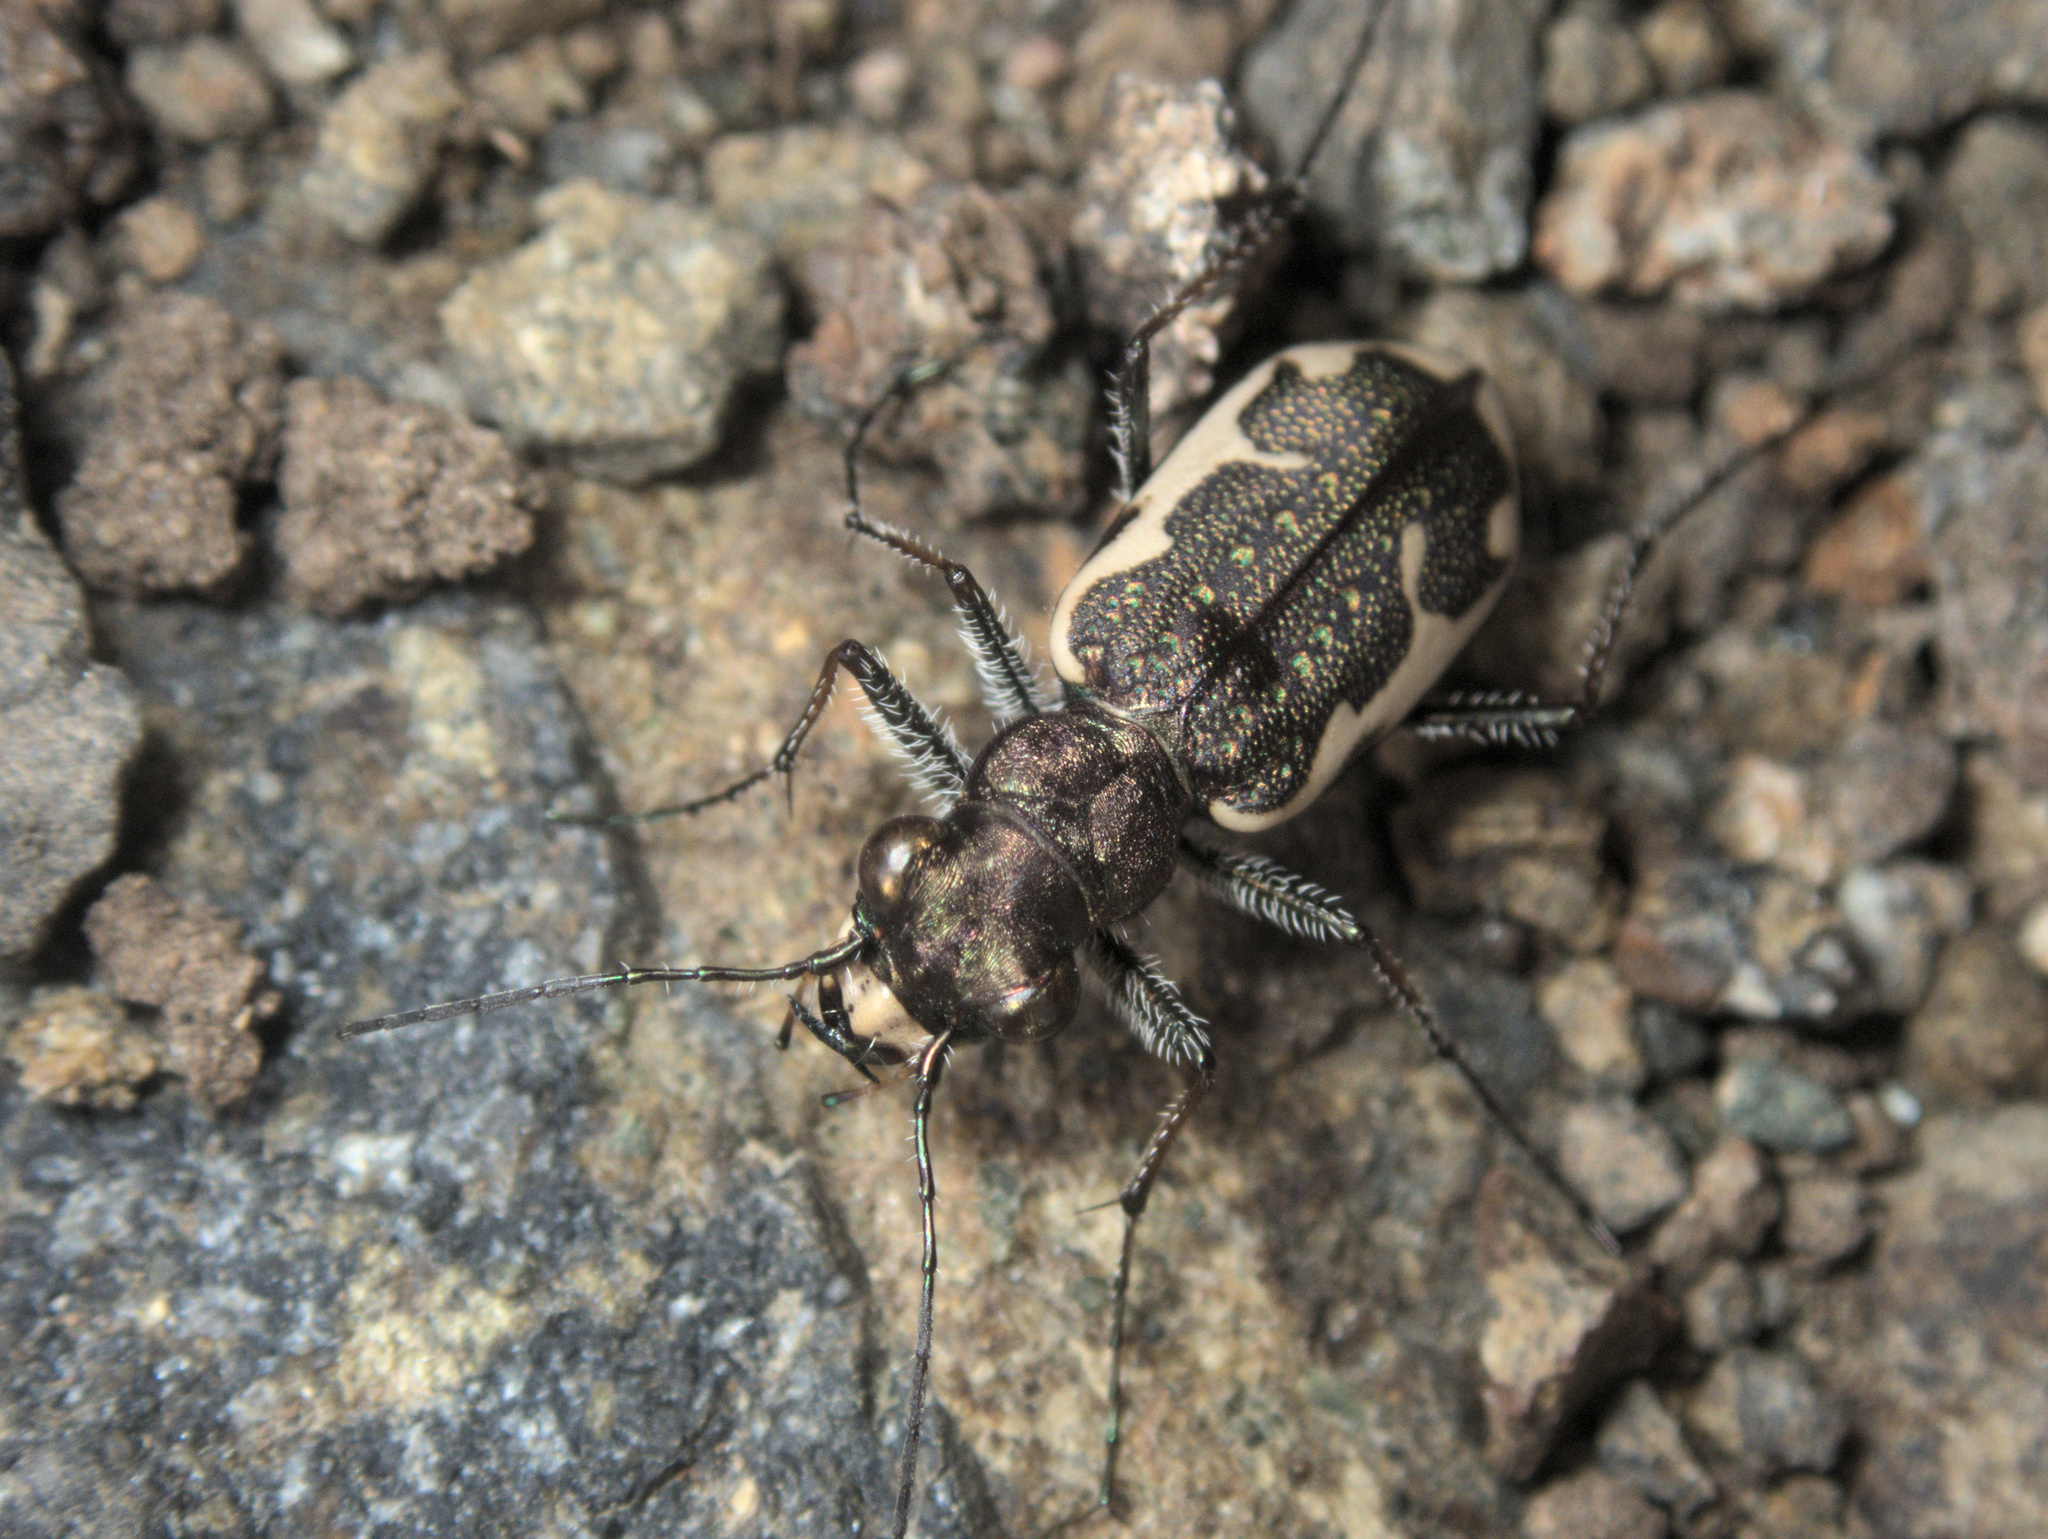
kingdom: Animalia
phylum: Arthropoda
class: Insecta
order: Coleoptera
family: Carabidae
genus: Neocicindela
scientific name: Neocicindela tuberculata
